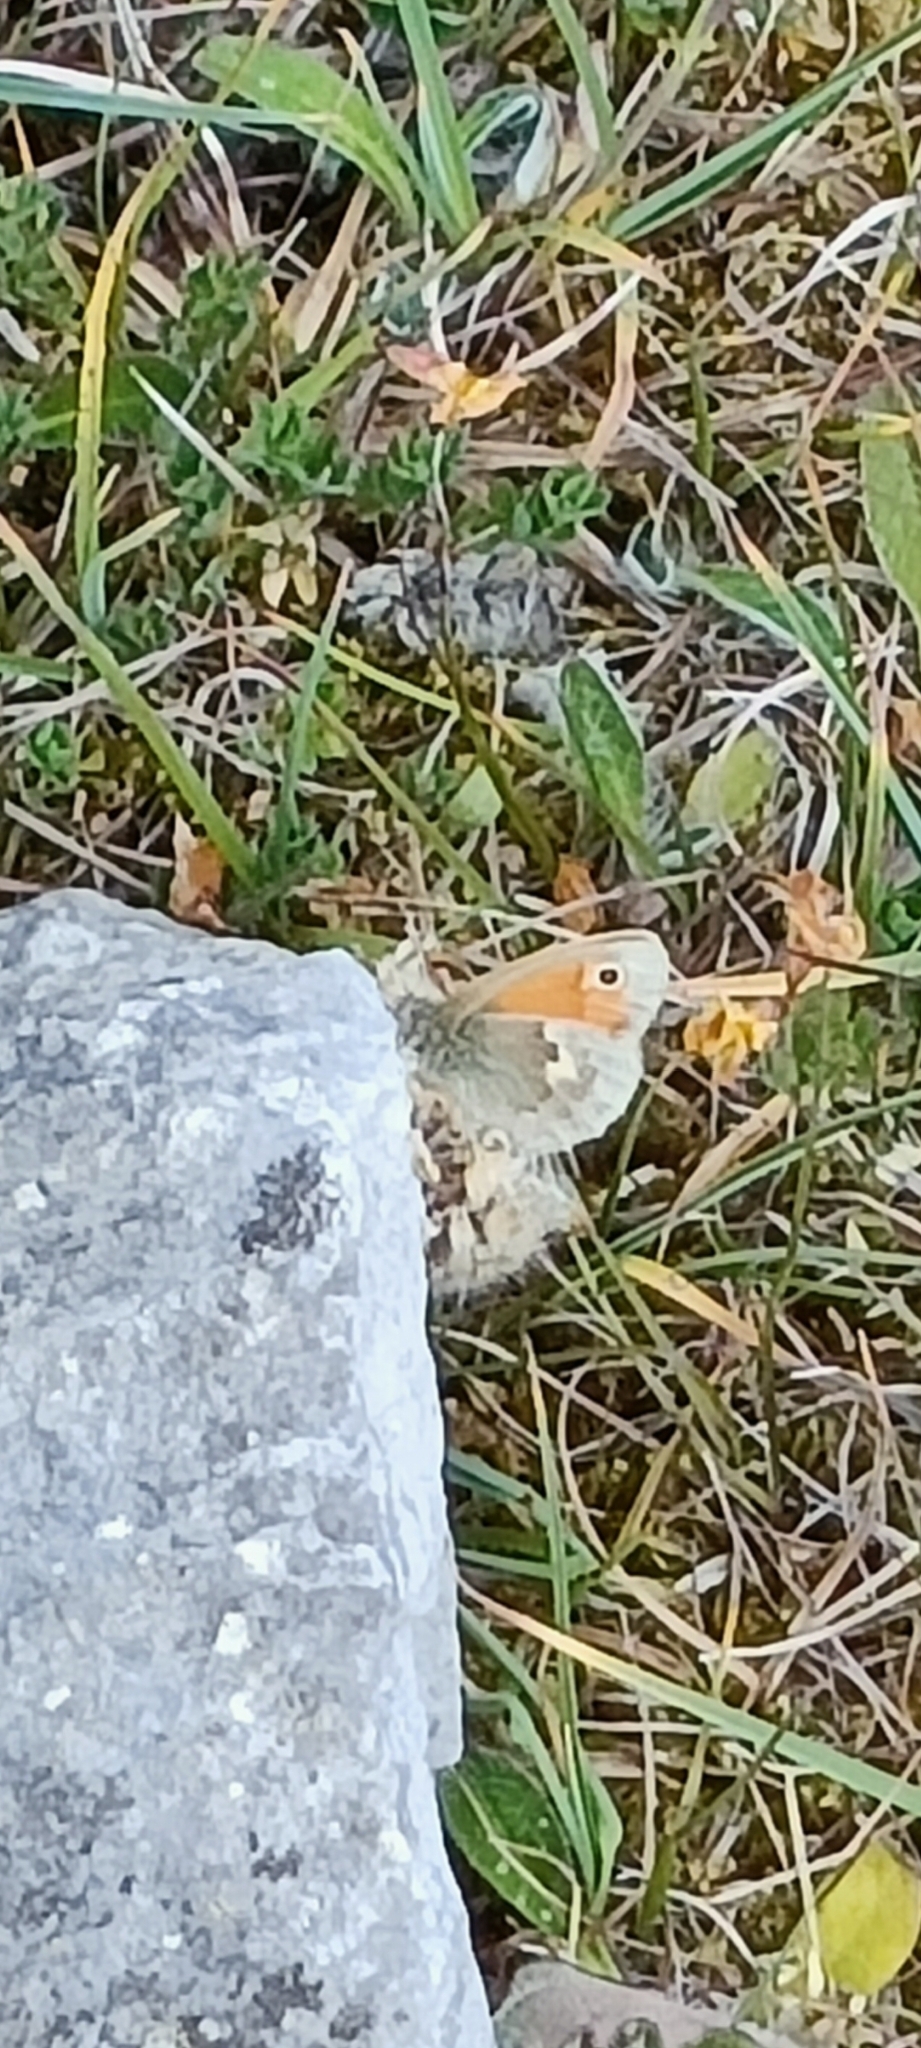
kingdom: Animalia
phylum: Arthropoda
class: Insecta
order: Lepidoptera
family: Nymphalidae
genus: Coenonympha
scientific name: Coenonympha pamphilus
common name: Small heath
